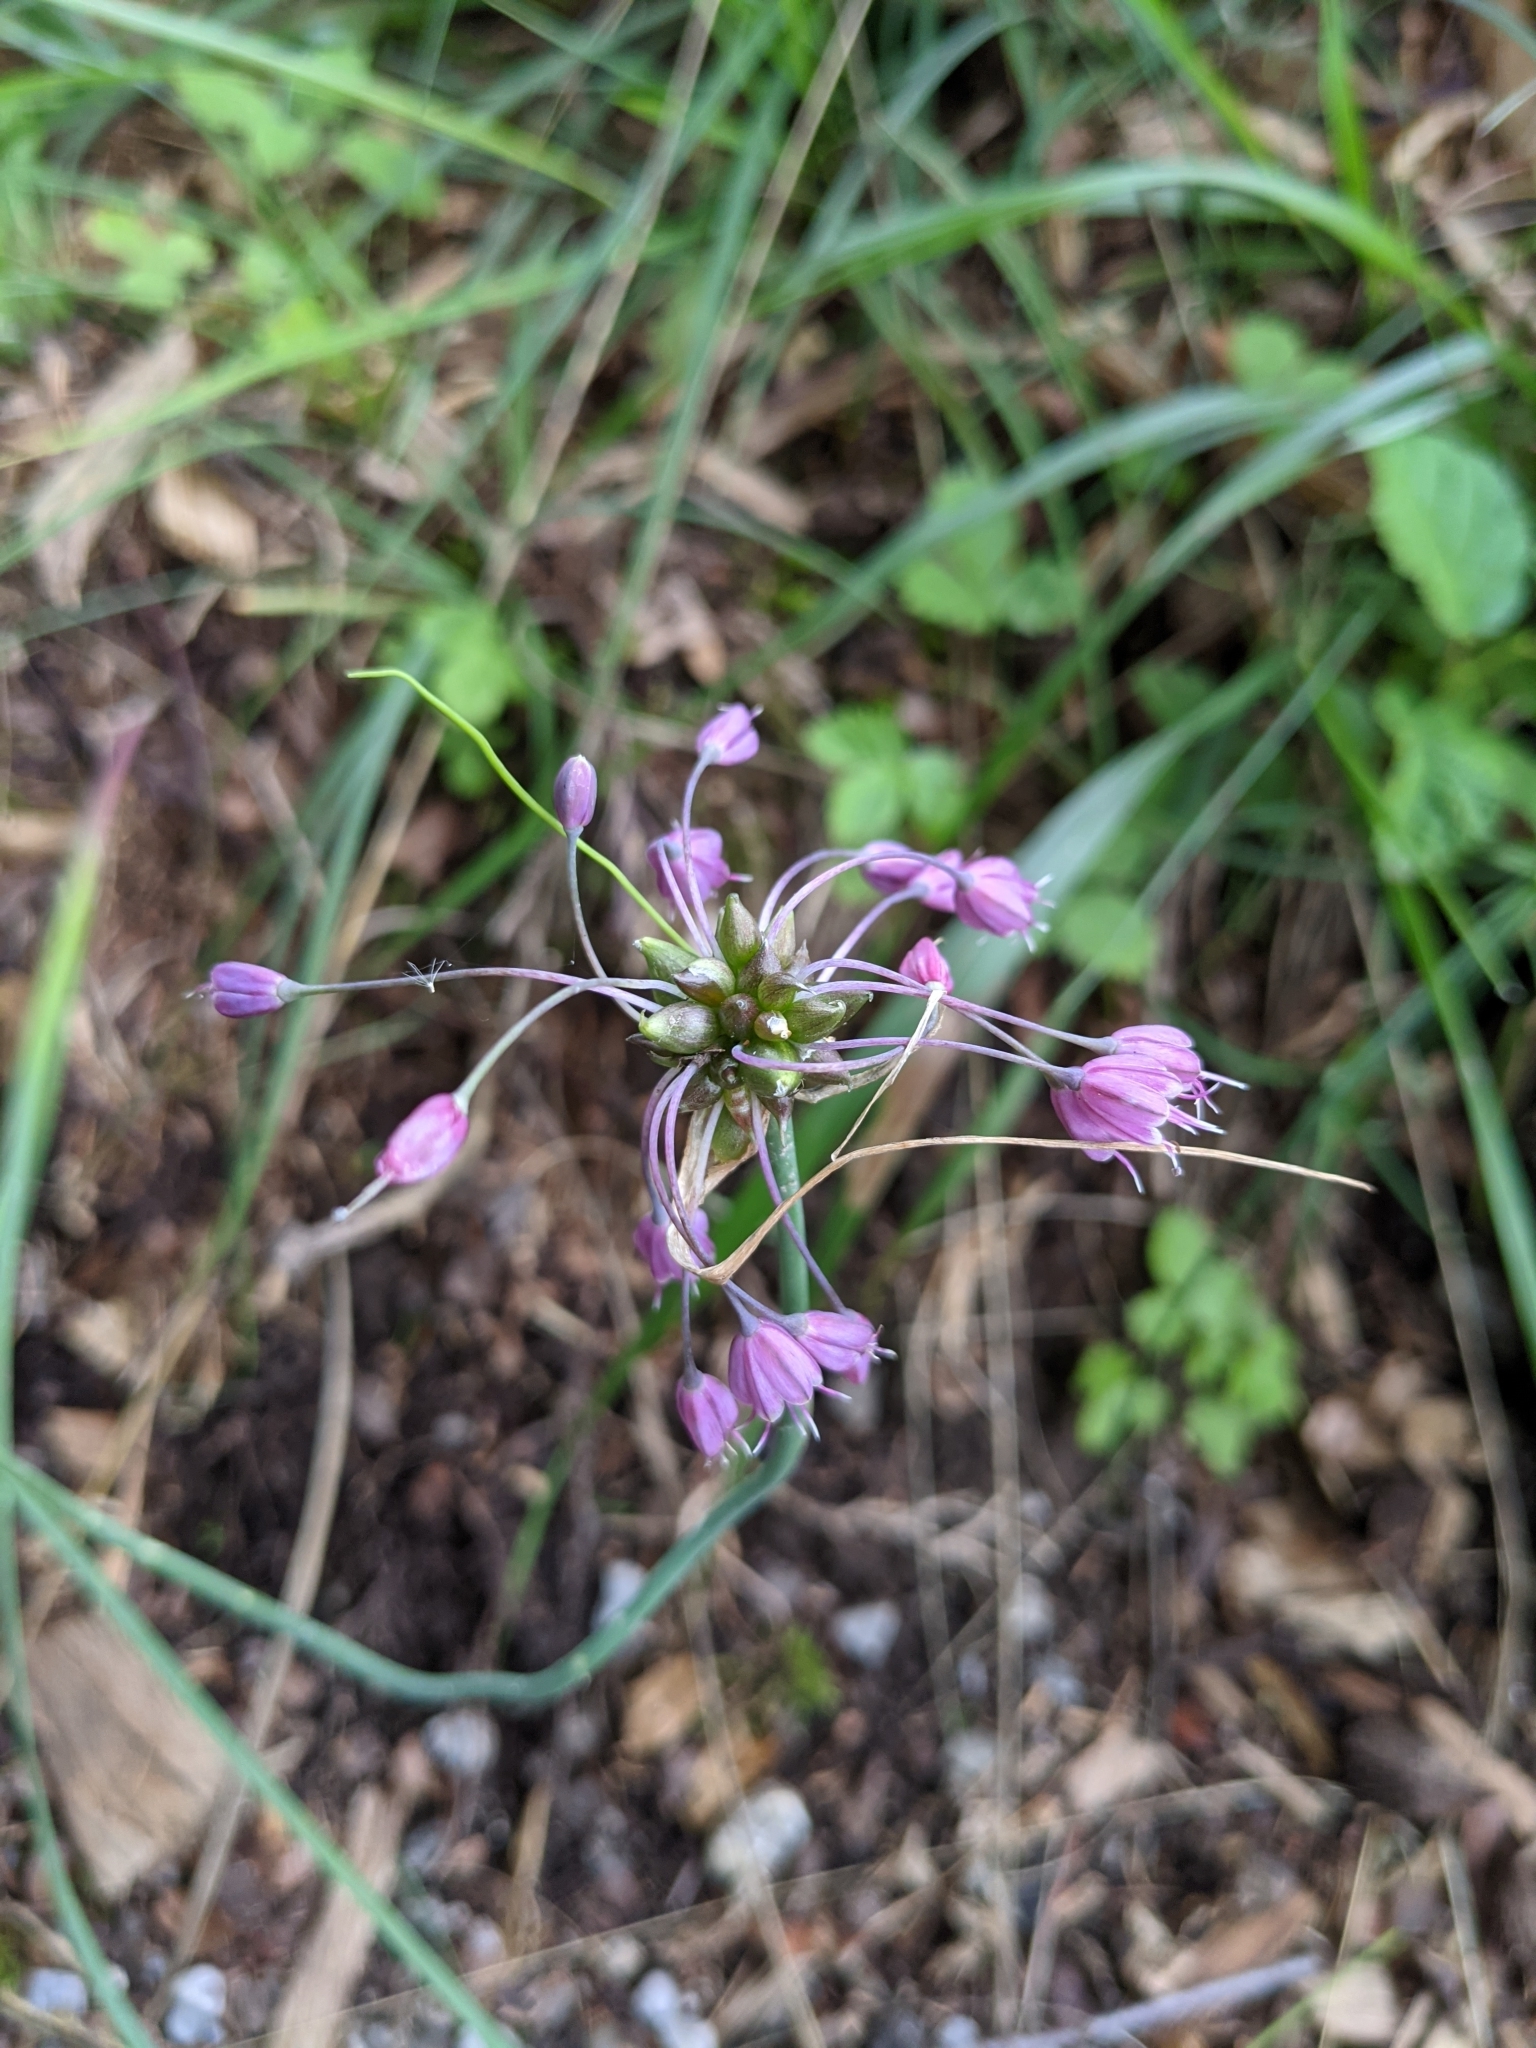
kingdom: Plantae
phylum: Tracheophyta
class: Liliopsida
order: Asparagales
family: Amaryllidaceae
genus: Allium
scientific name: Allium carinatum
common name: Keeled garlic
